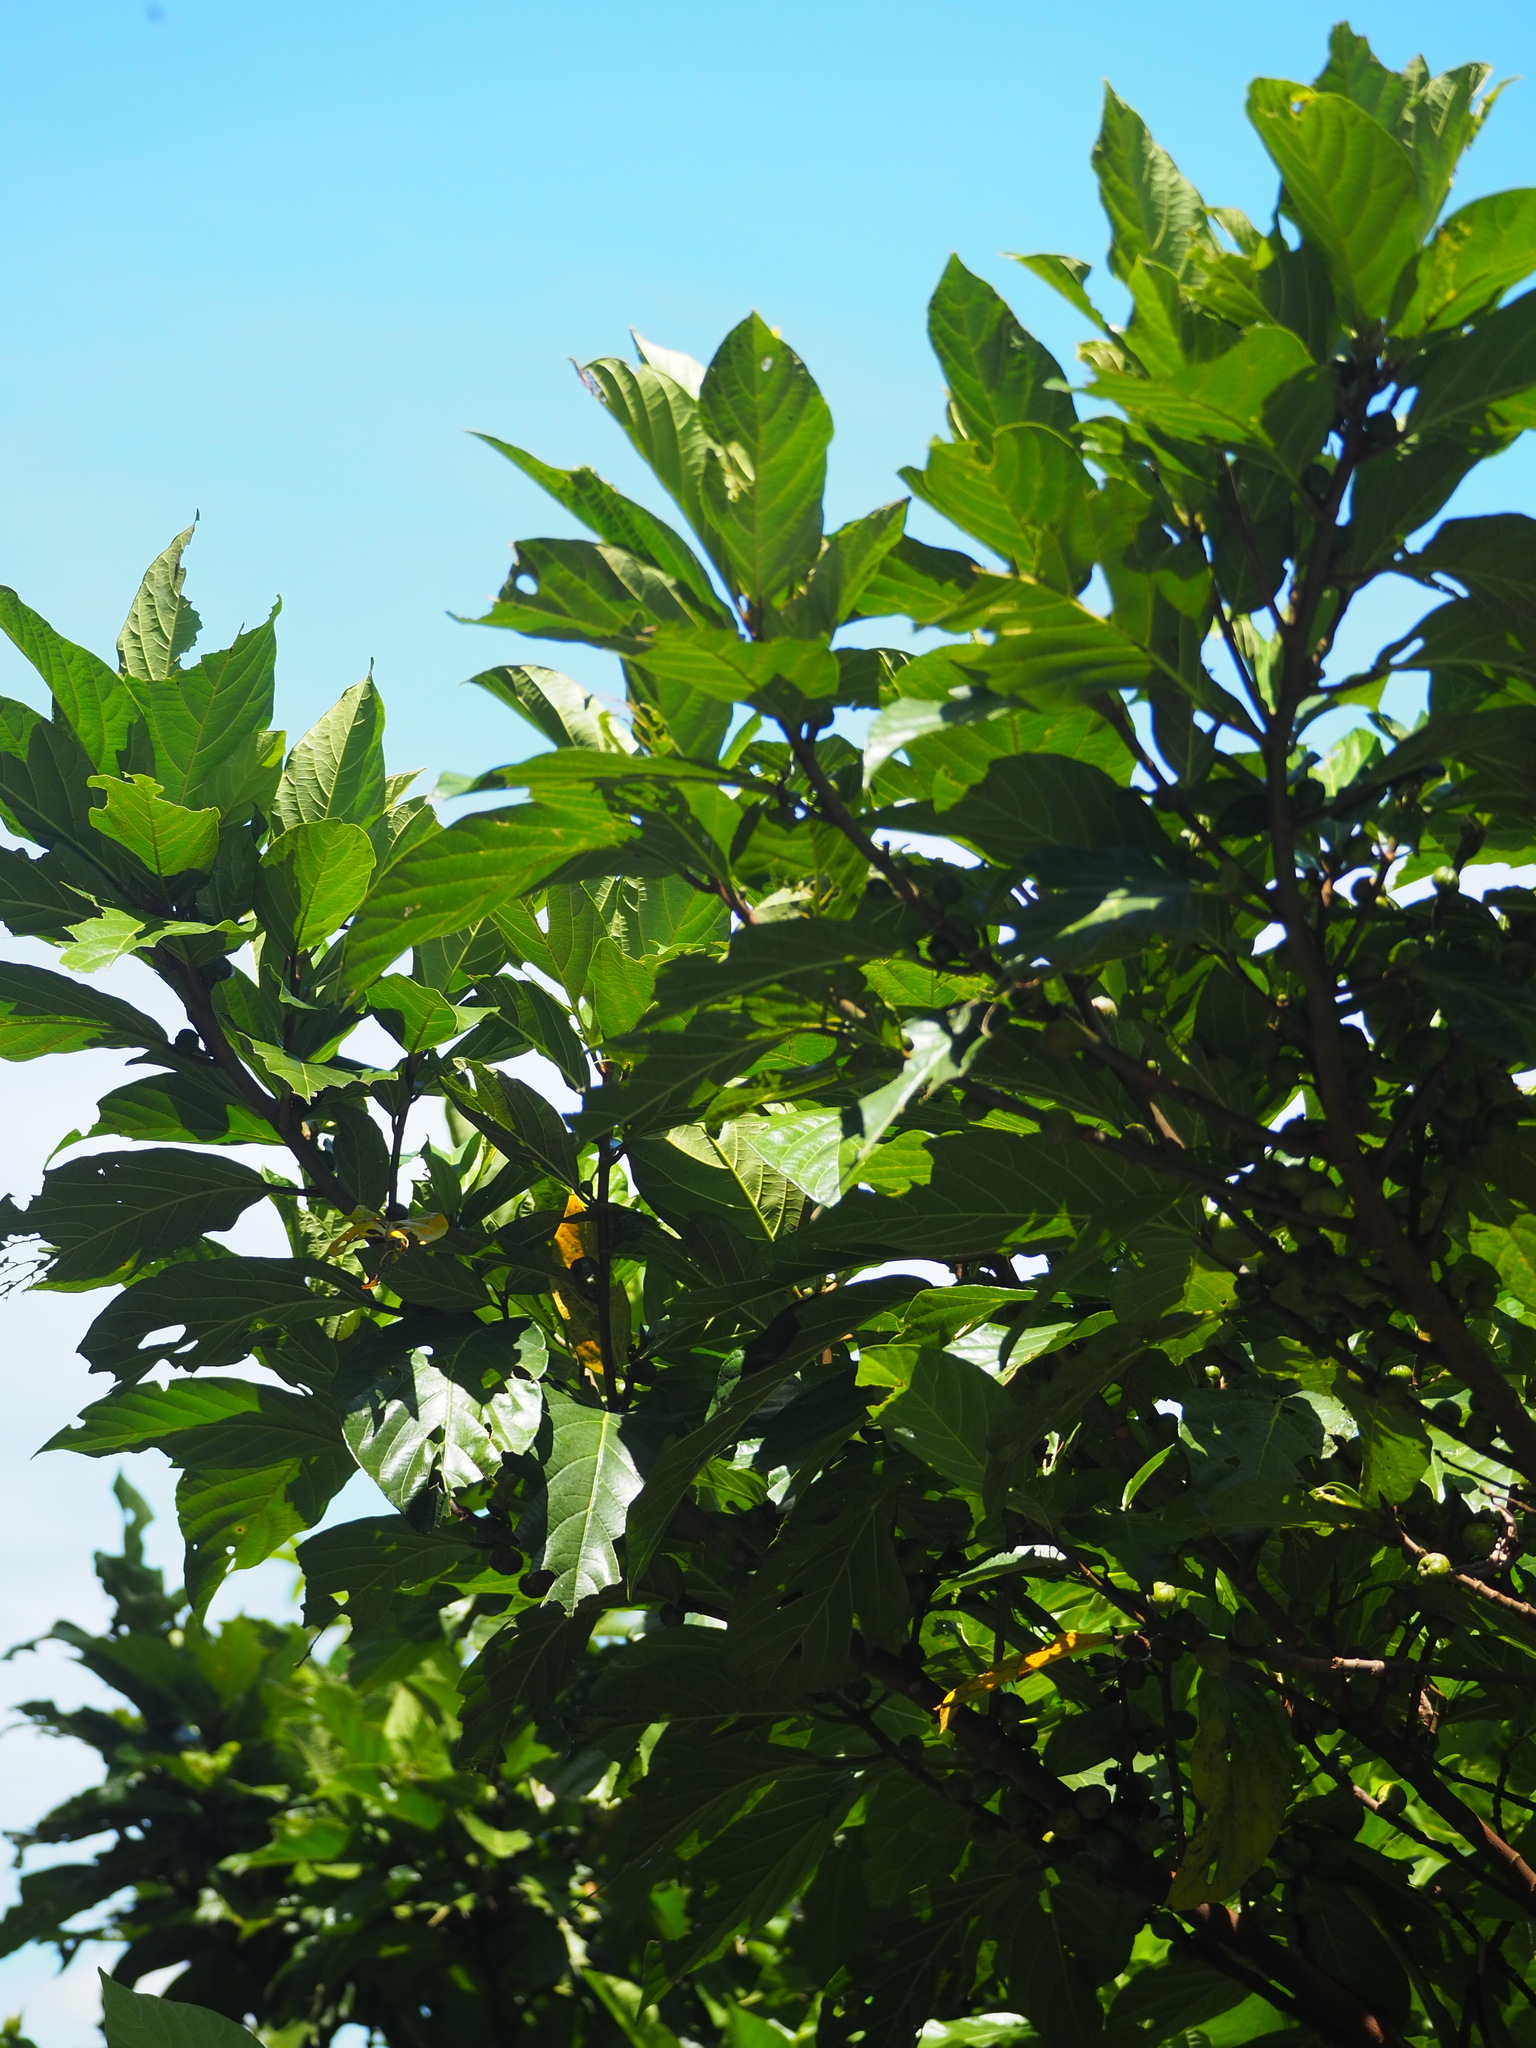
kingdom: Plantae
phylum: Tracheophyta
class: Magnoliopsida
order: Rosales
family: Moraceae
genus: Ficus
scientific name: Ficus benguetensis
